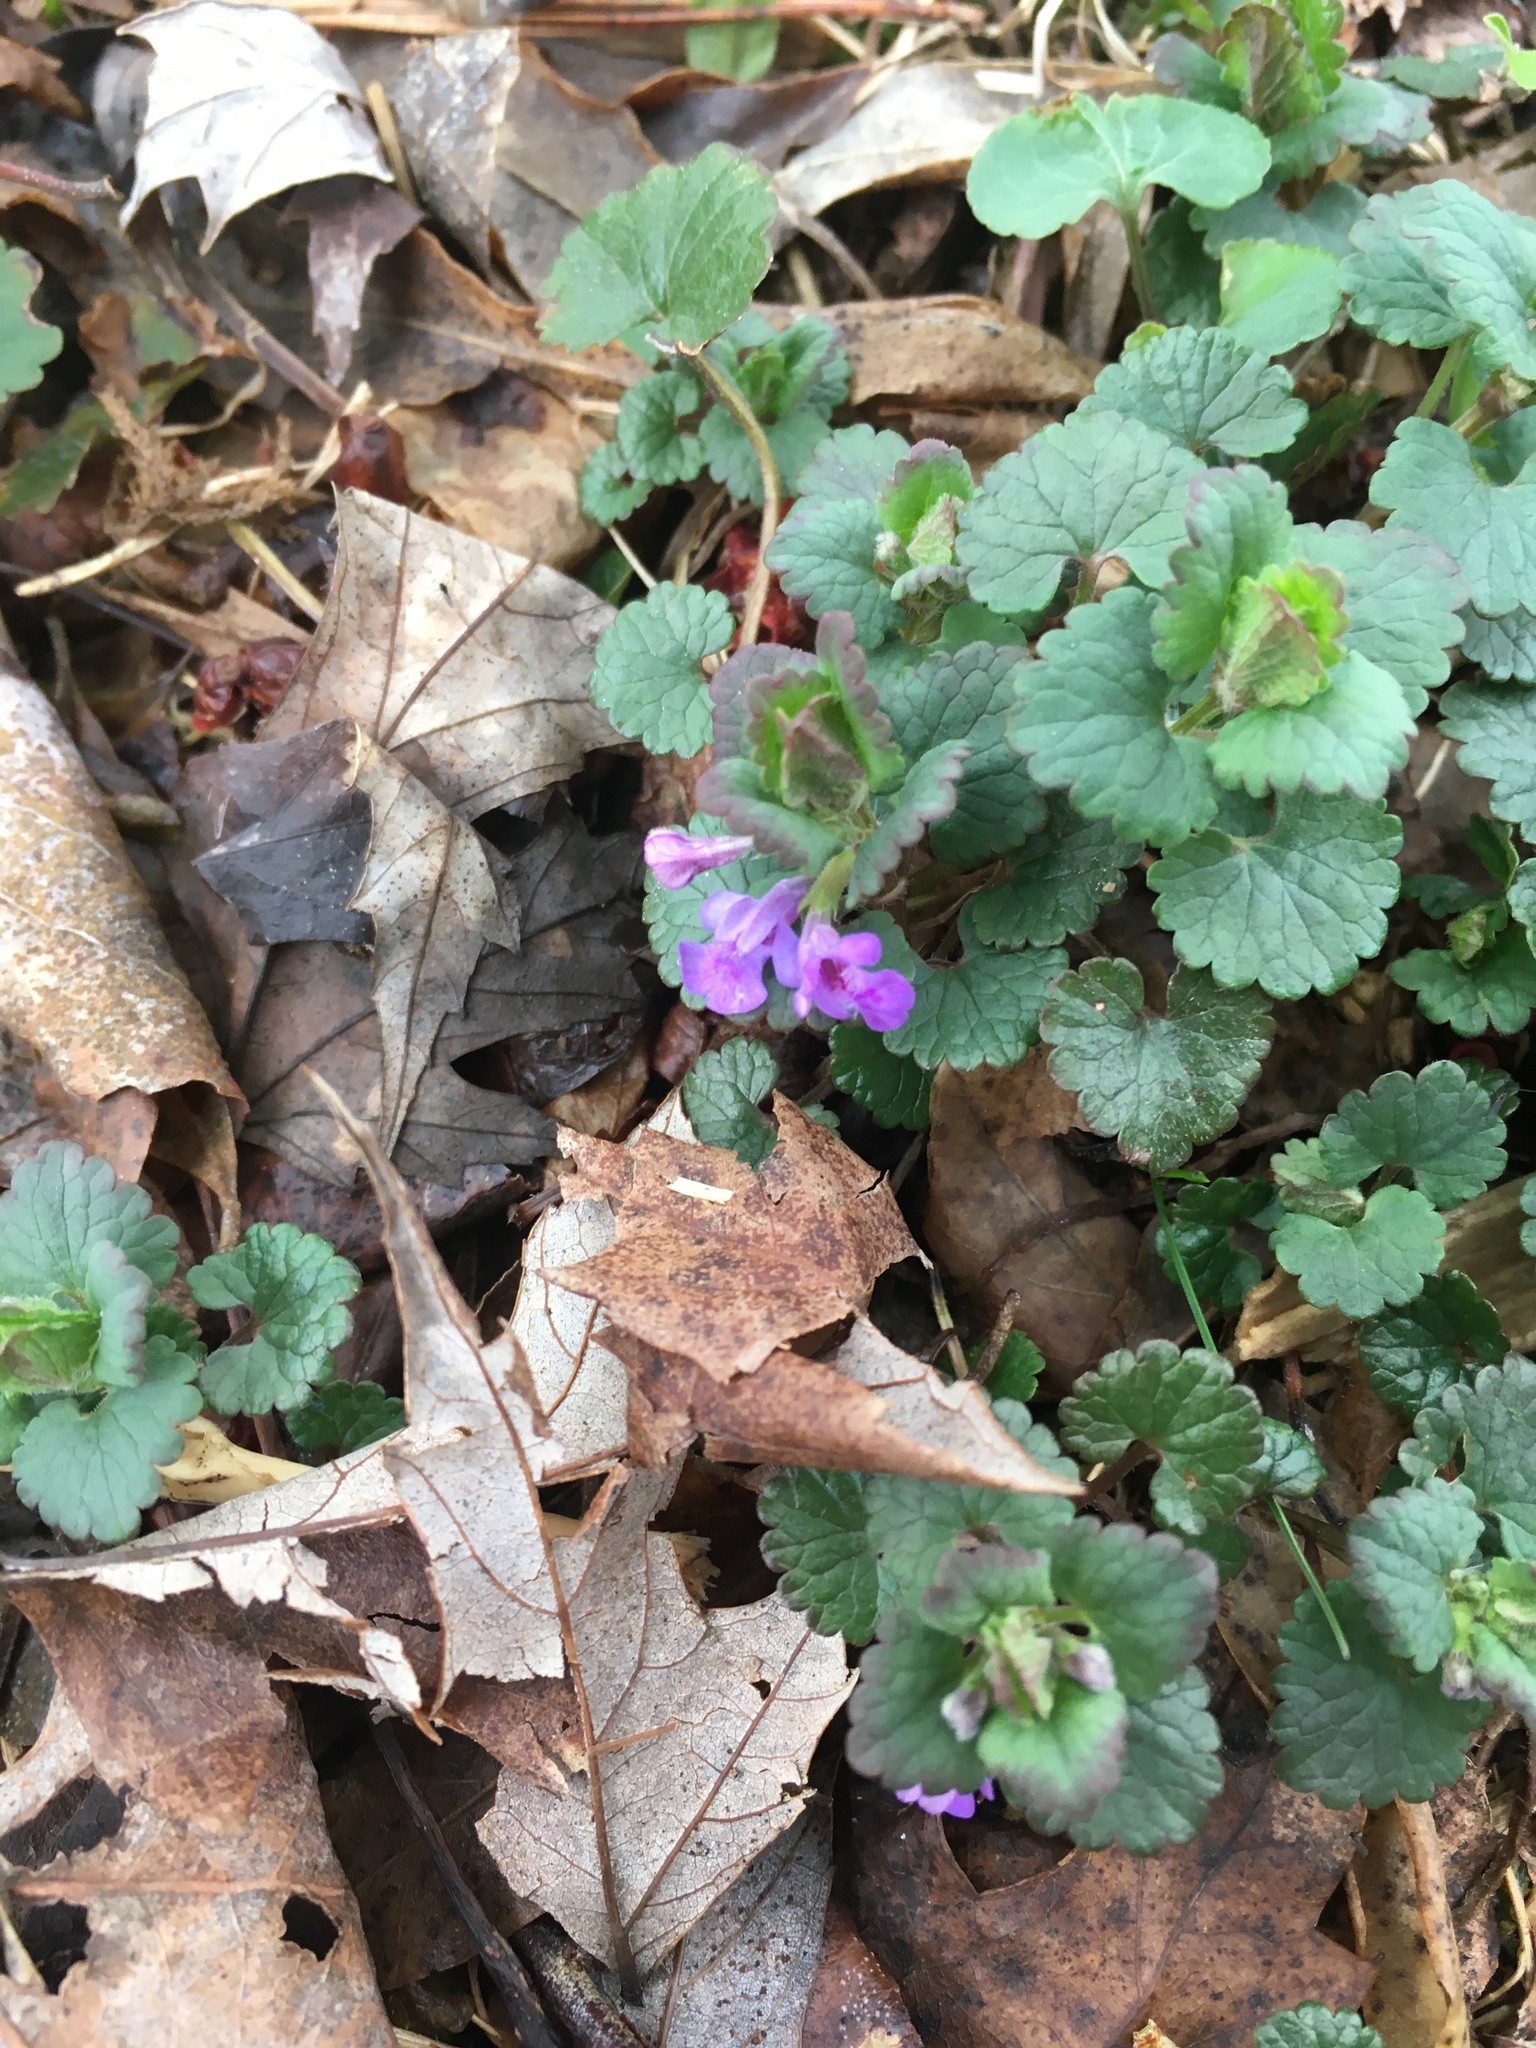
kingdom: Plantae
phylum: Tracheophyta
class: Magnoliopsida
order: Lamiales
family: Lamiaceae
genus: Glechoma
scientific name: Glechoma hederacea
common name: Ground ivy
